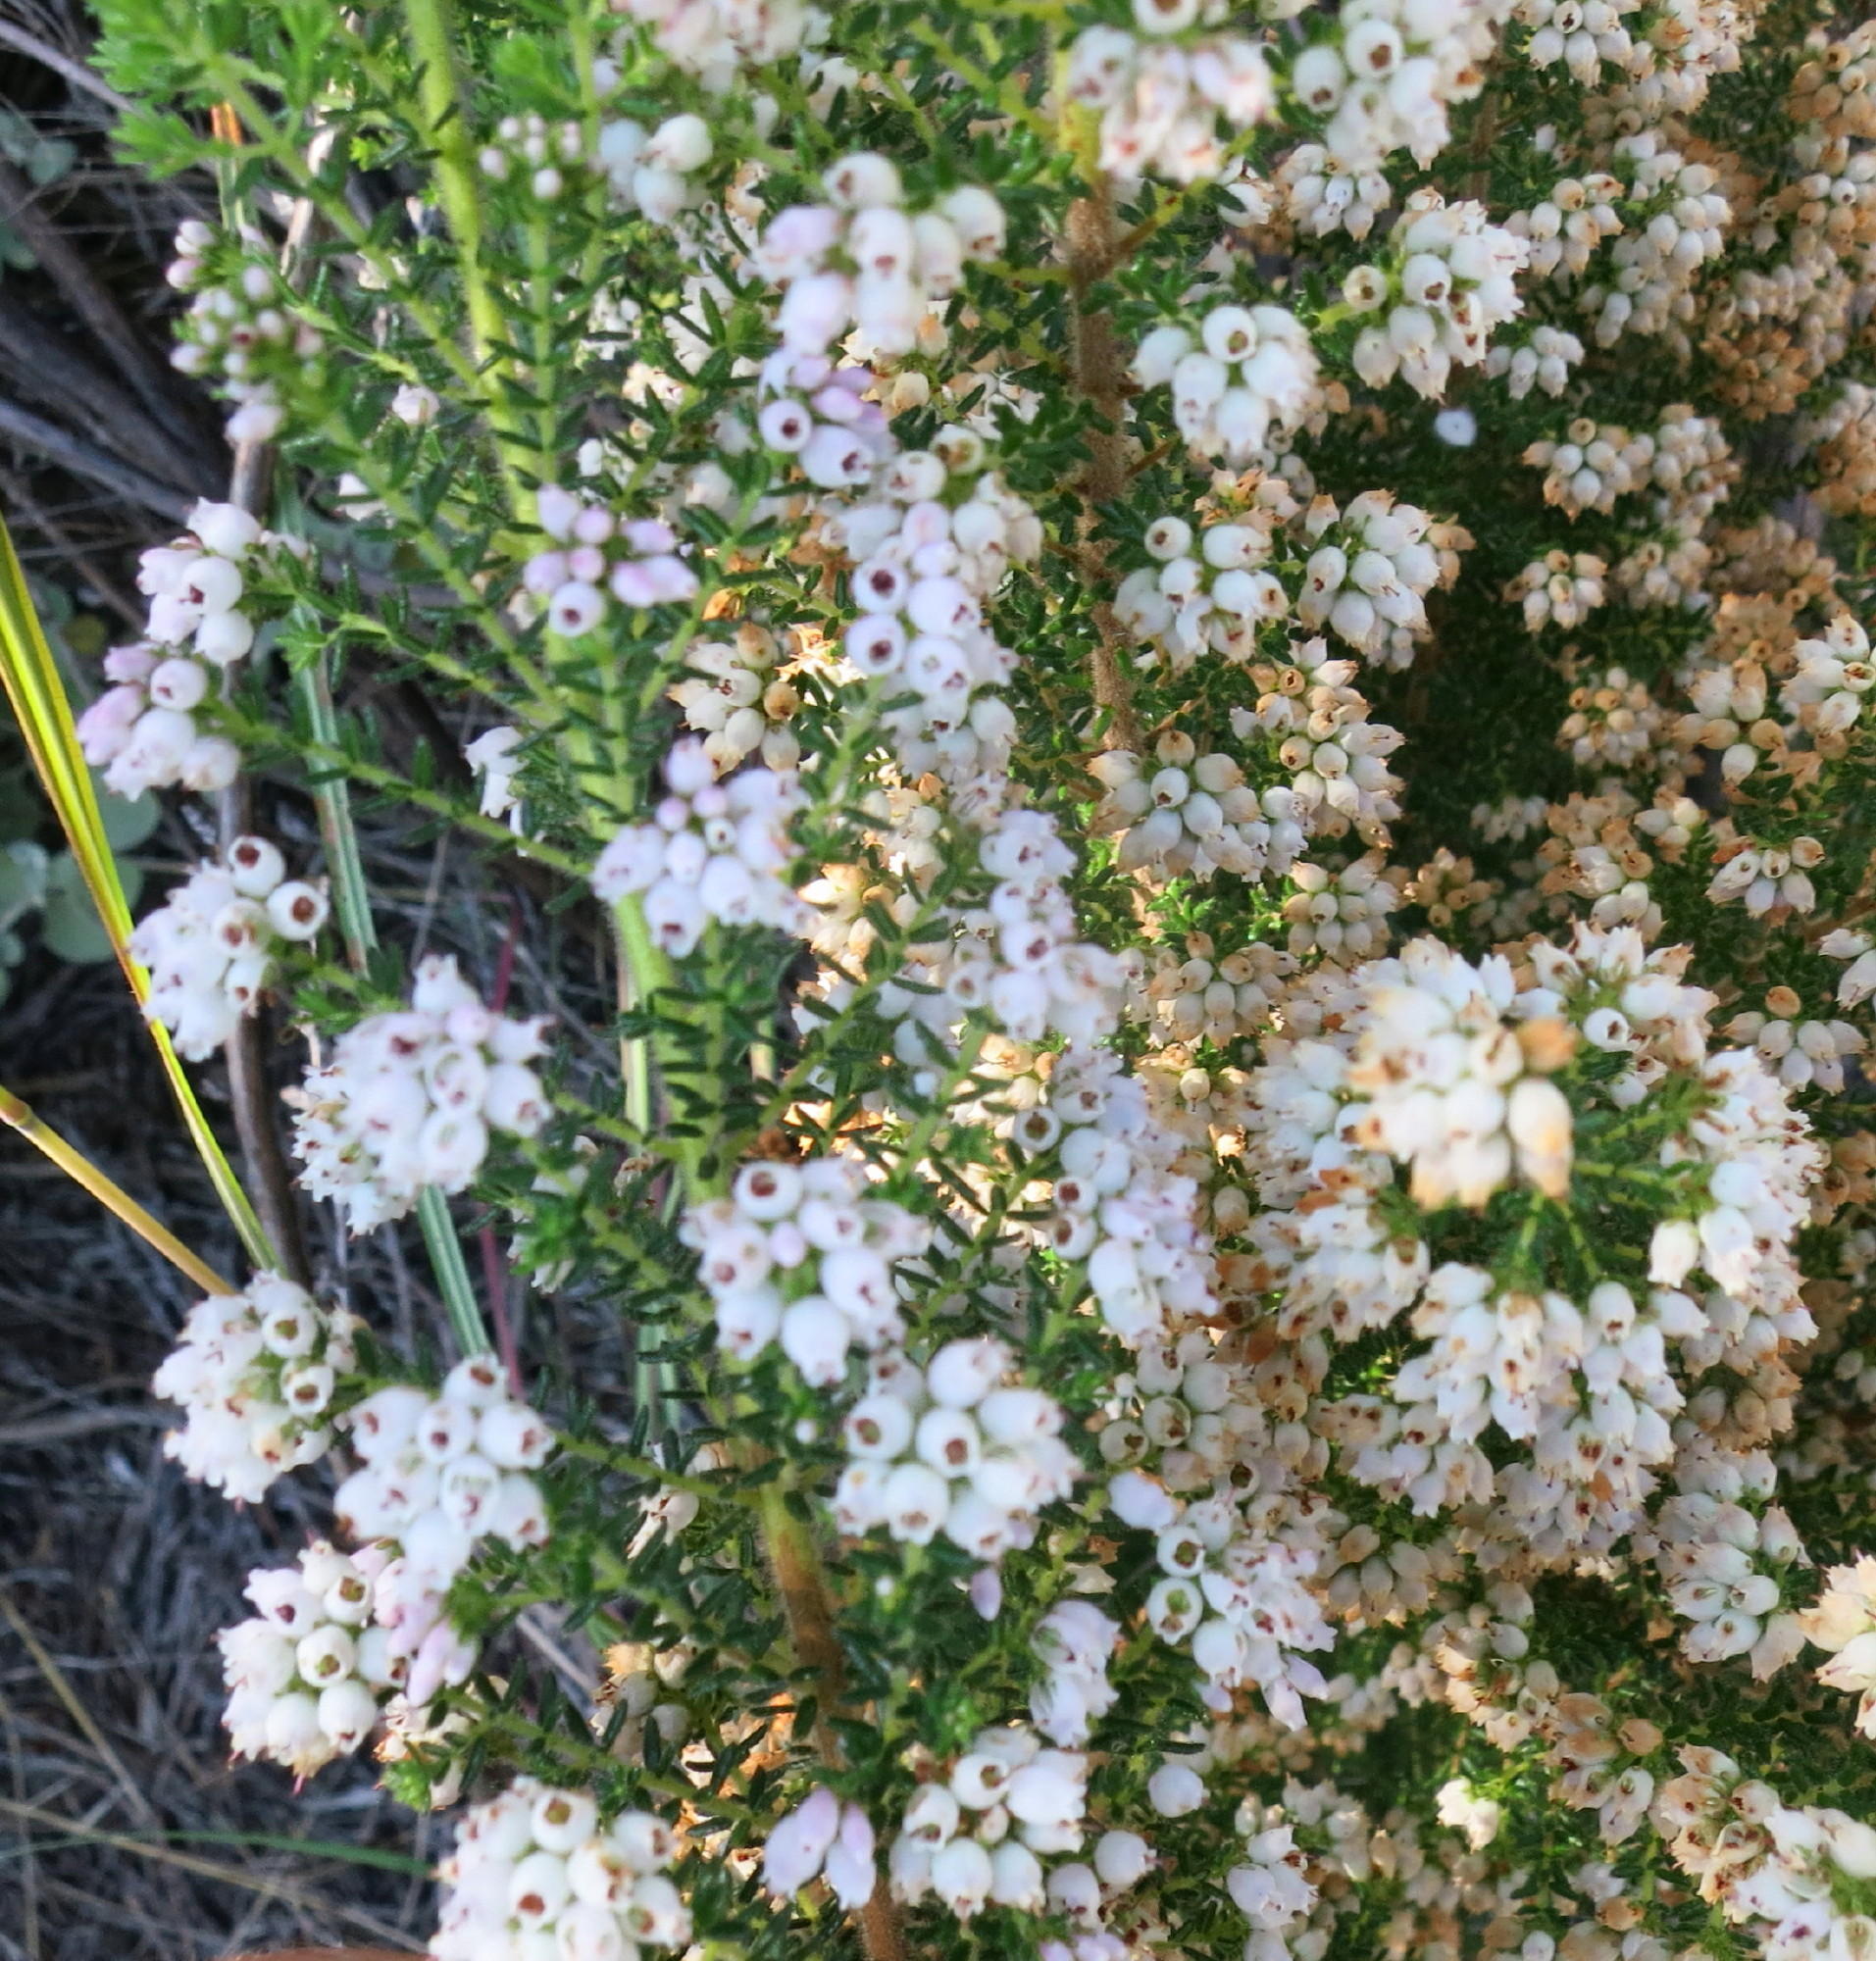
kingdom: Plantae
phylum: Tracheophyta
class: Magnoliopsida
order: Ericales
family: Ericaceae
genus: Erica
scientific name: Erica scabriuscula
